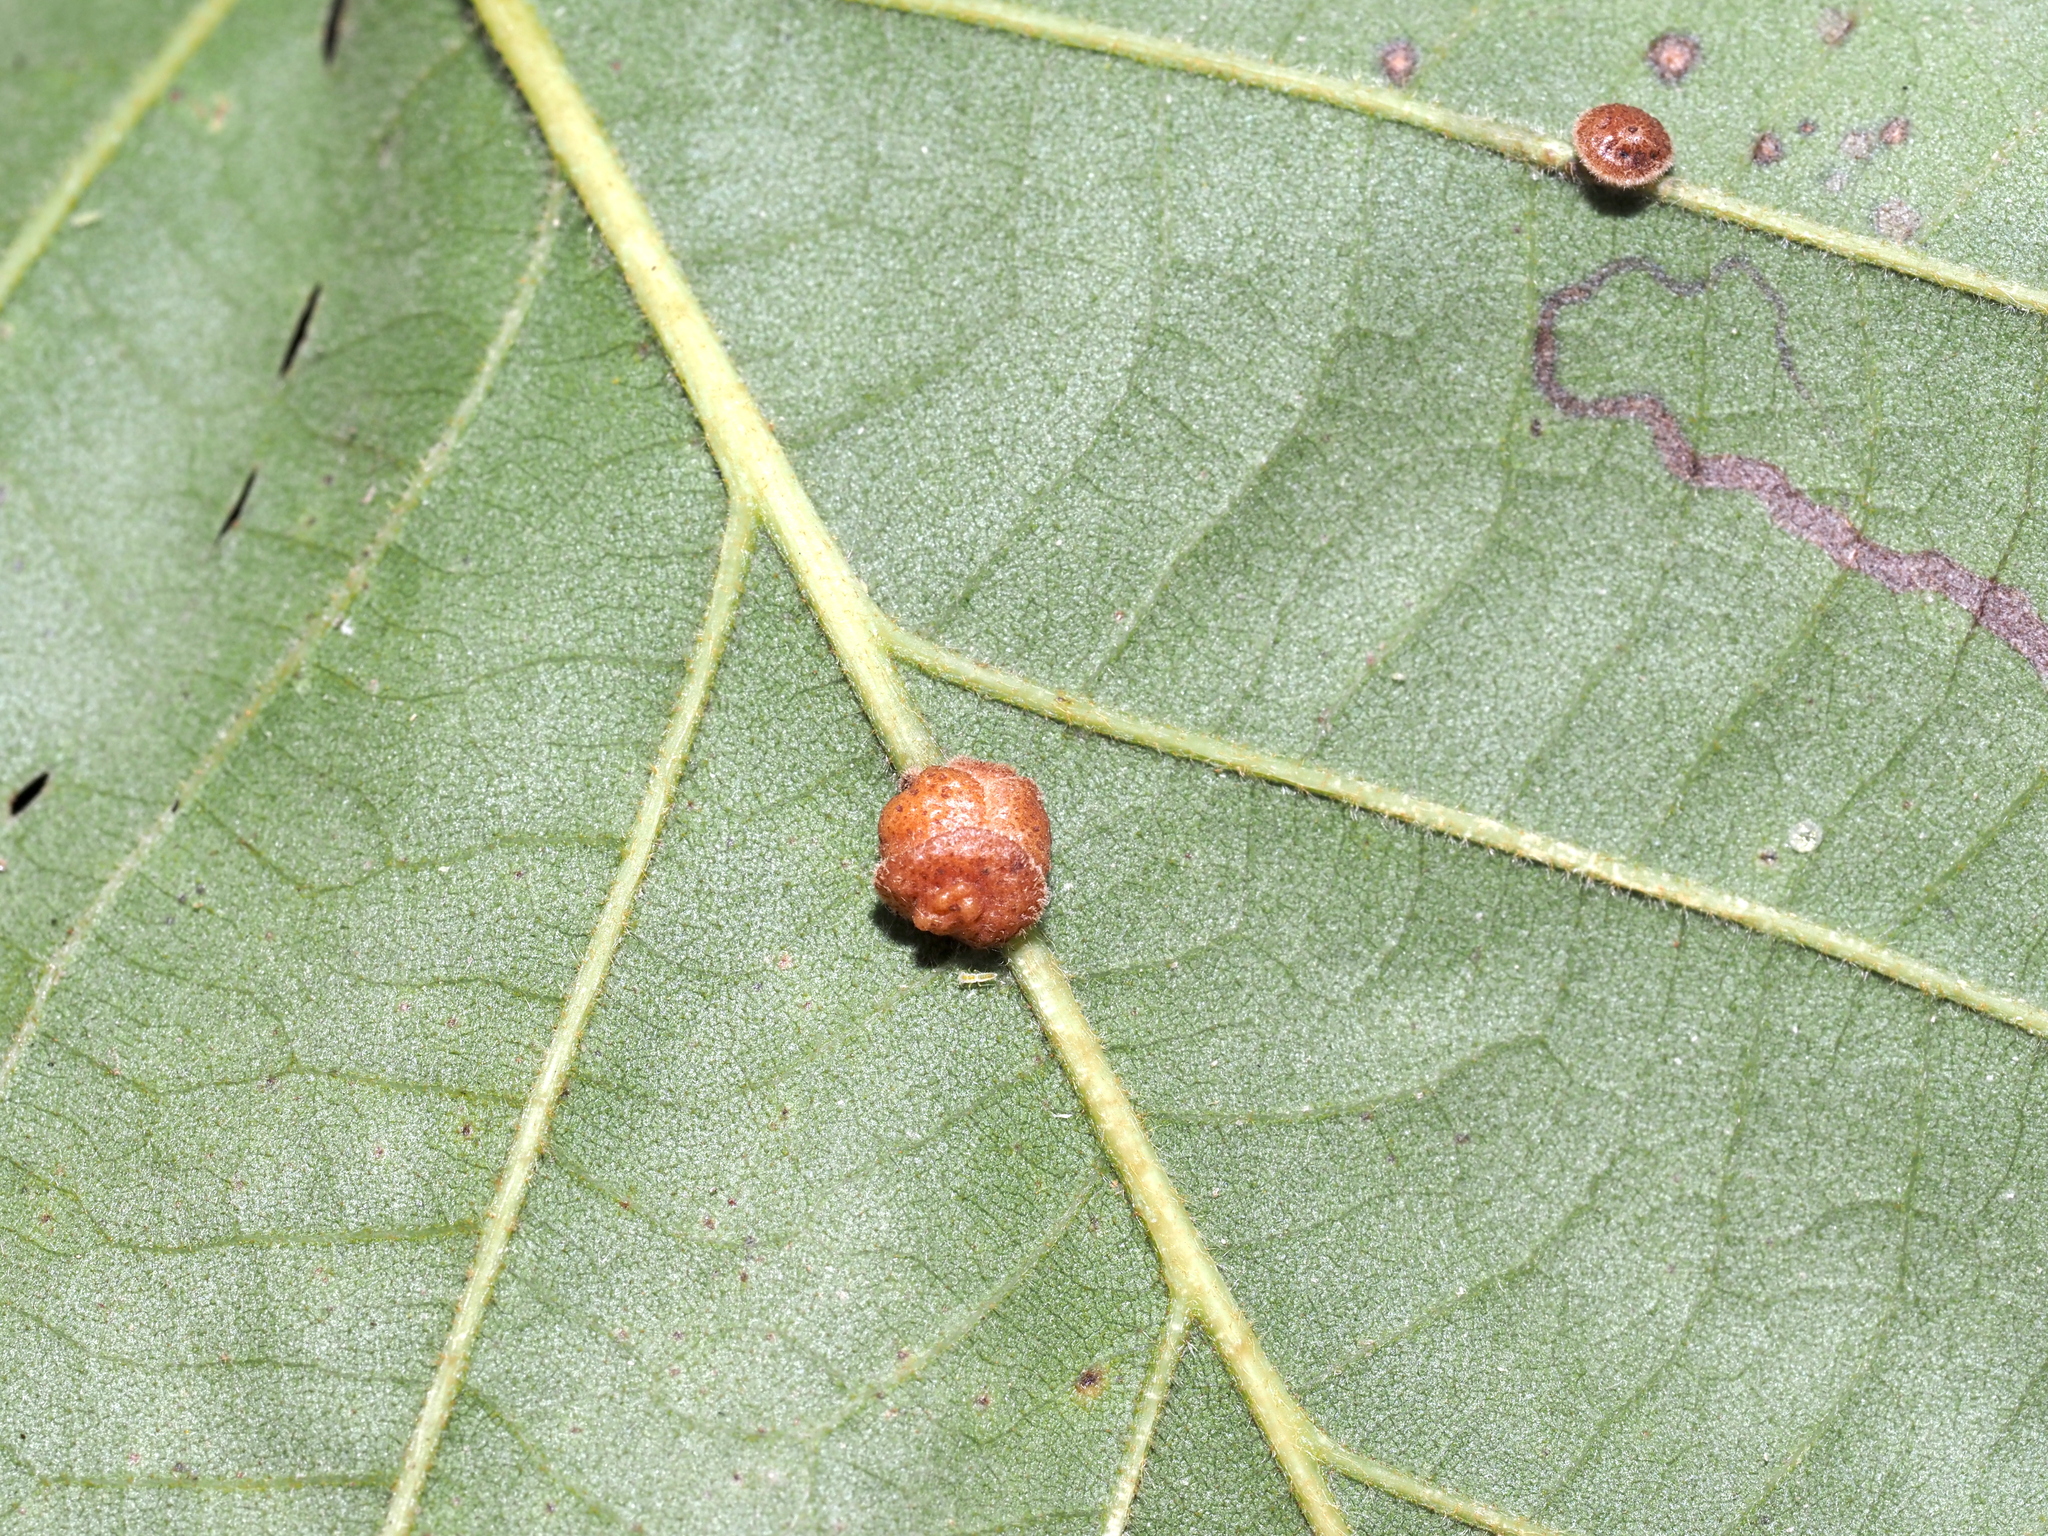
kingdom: Animalia
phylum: Arthropoda
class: Insecta
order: Hymenoptera
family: Cynipidae
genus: Andricus
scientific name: Andricus
